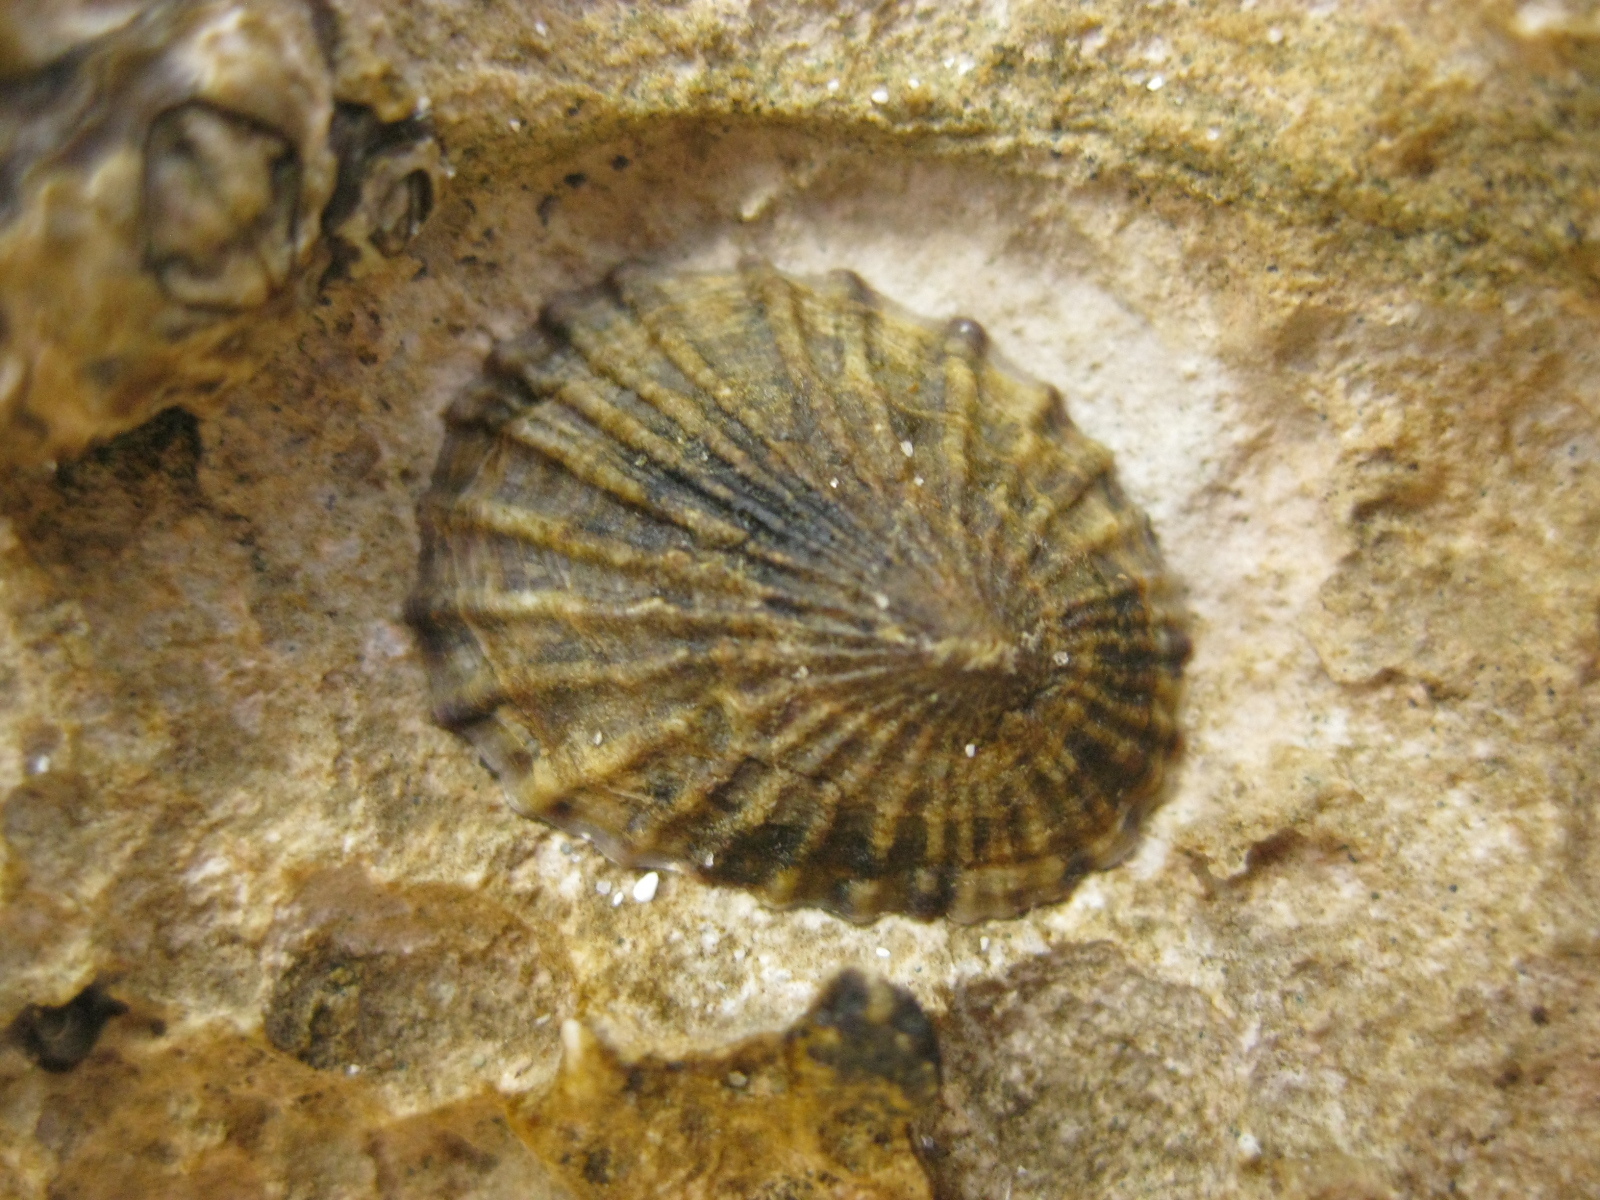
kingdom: Animalia
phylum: Mollusca
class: Gastropoda
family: Nacellidae
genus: Cellana
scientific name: Cellana radians
